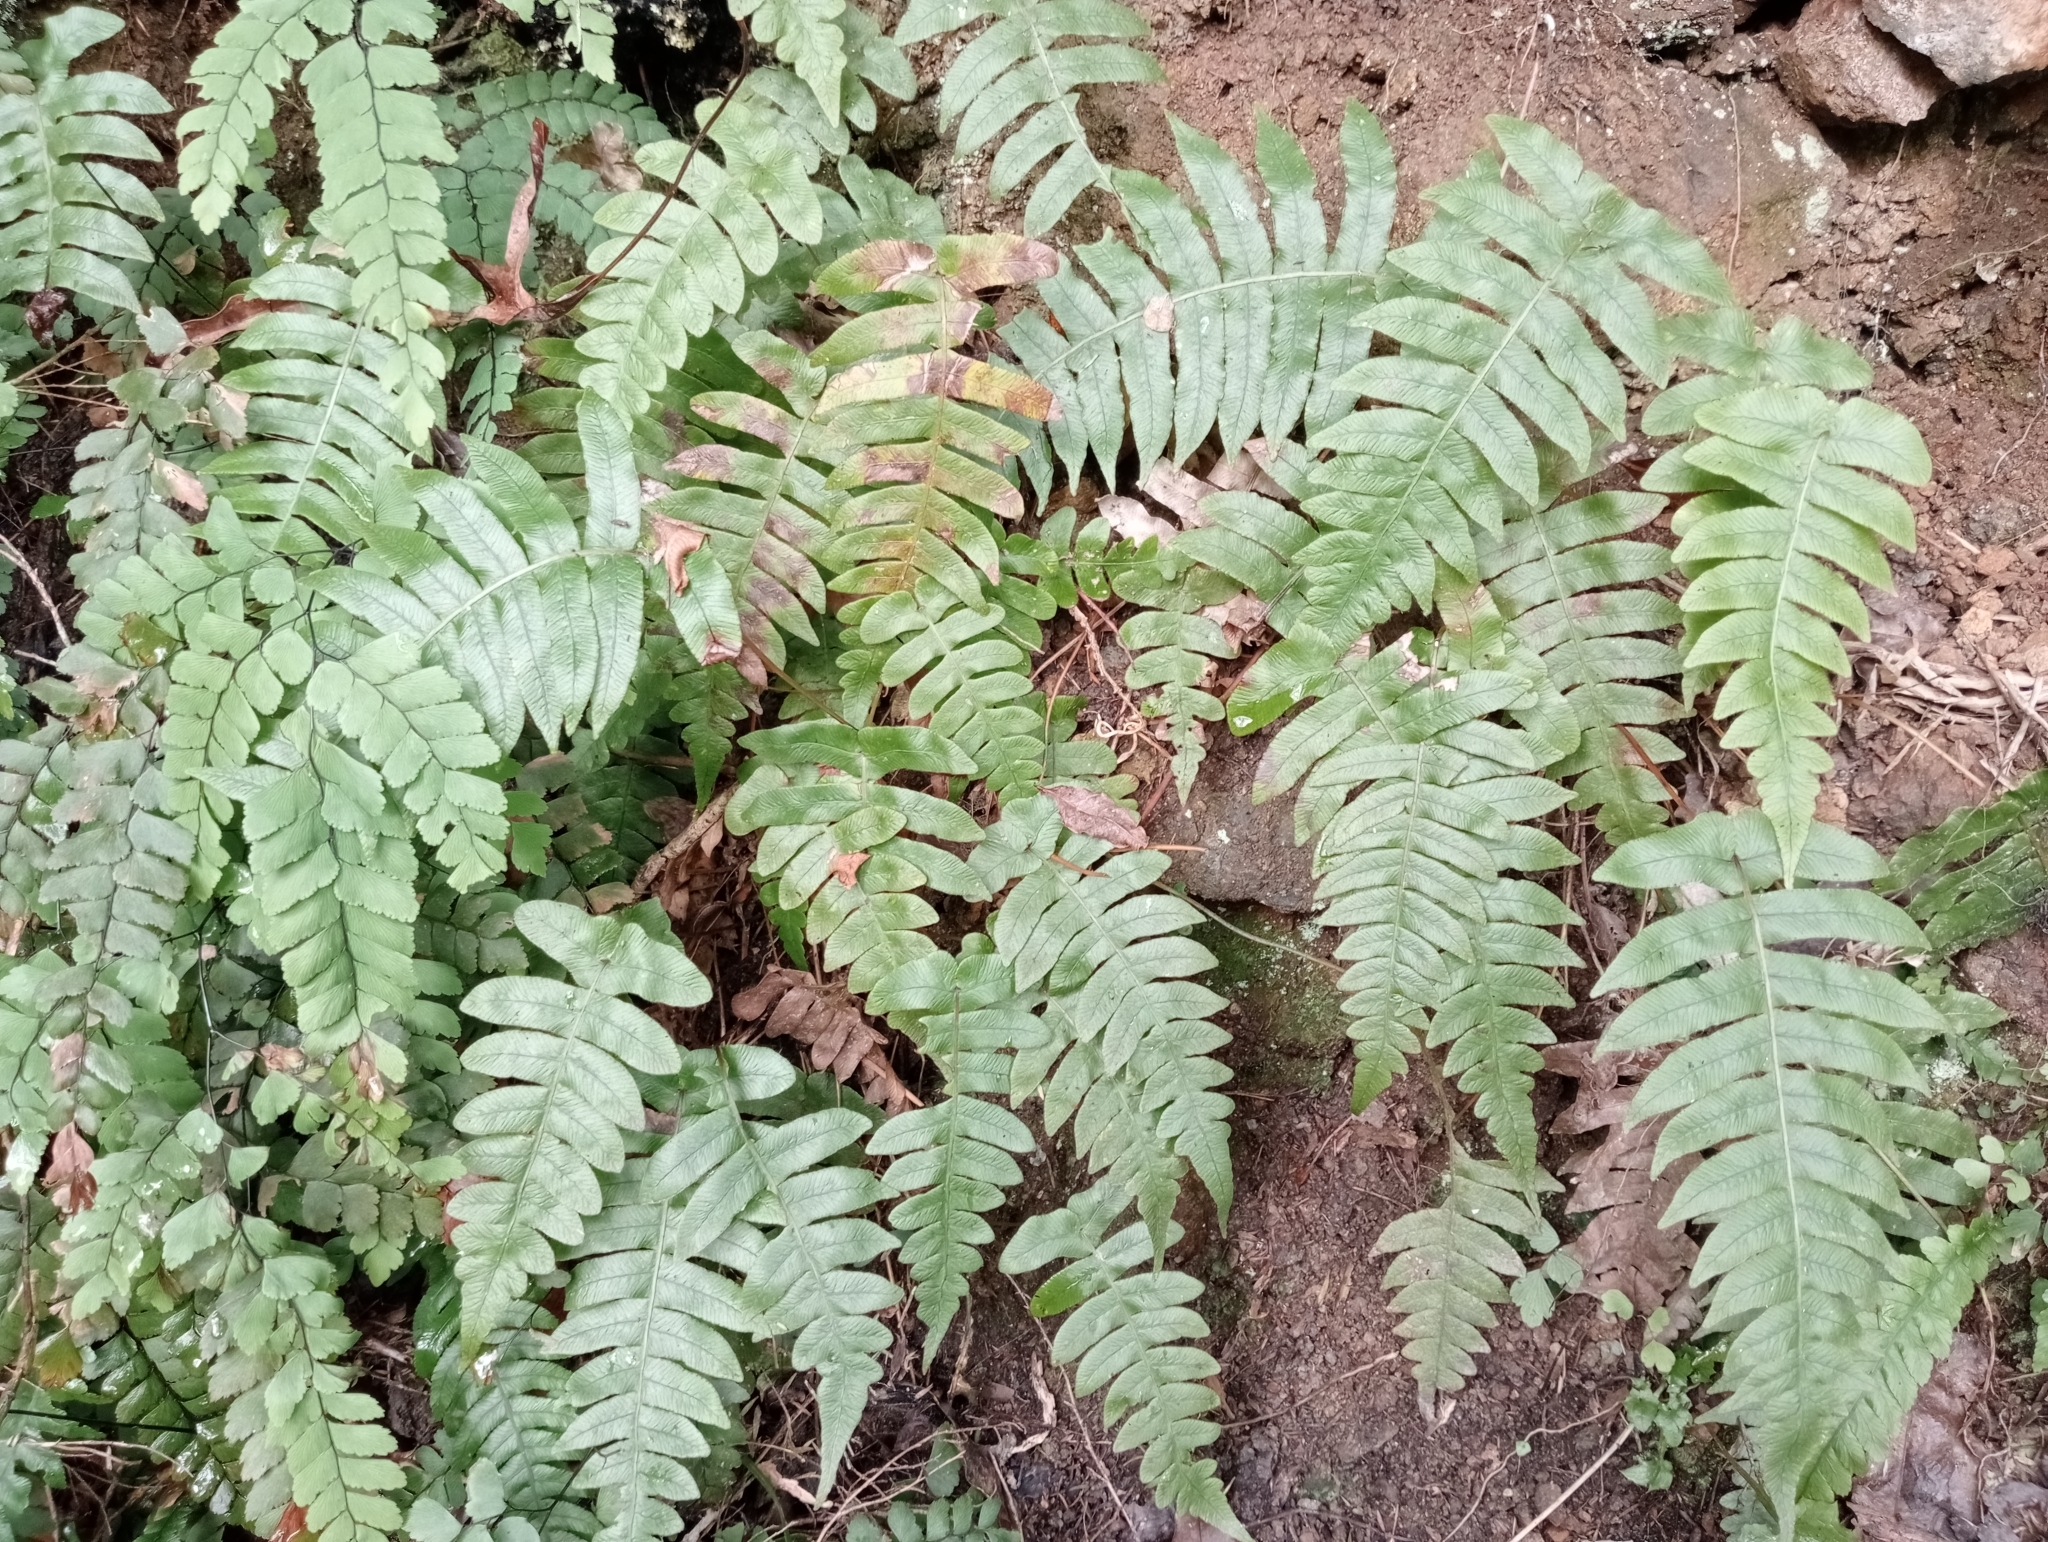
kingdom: Plantae
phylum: Tracheophyta
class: Polypodiopsida
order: Polypodiales
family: Blechnaceae
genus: Cranfillia
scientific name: Cranfillia deltoides
